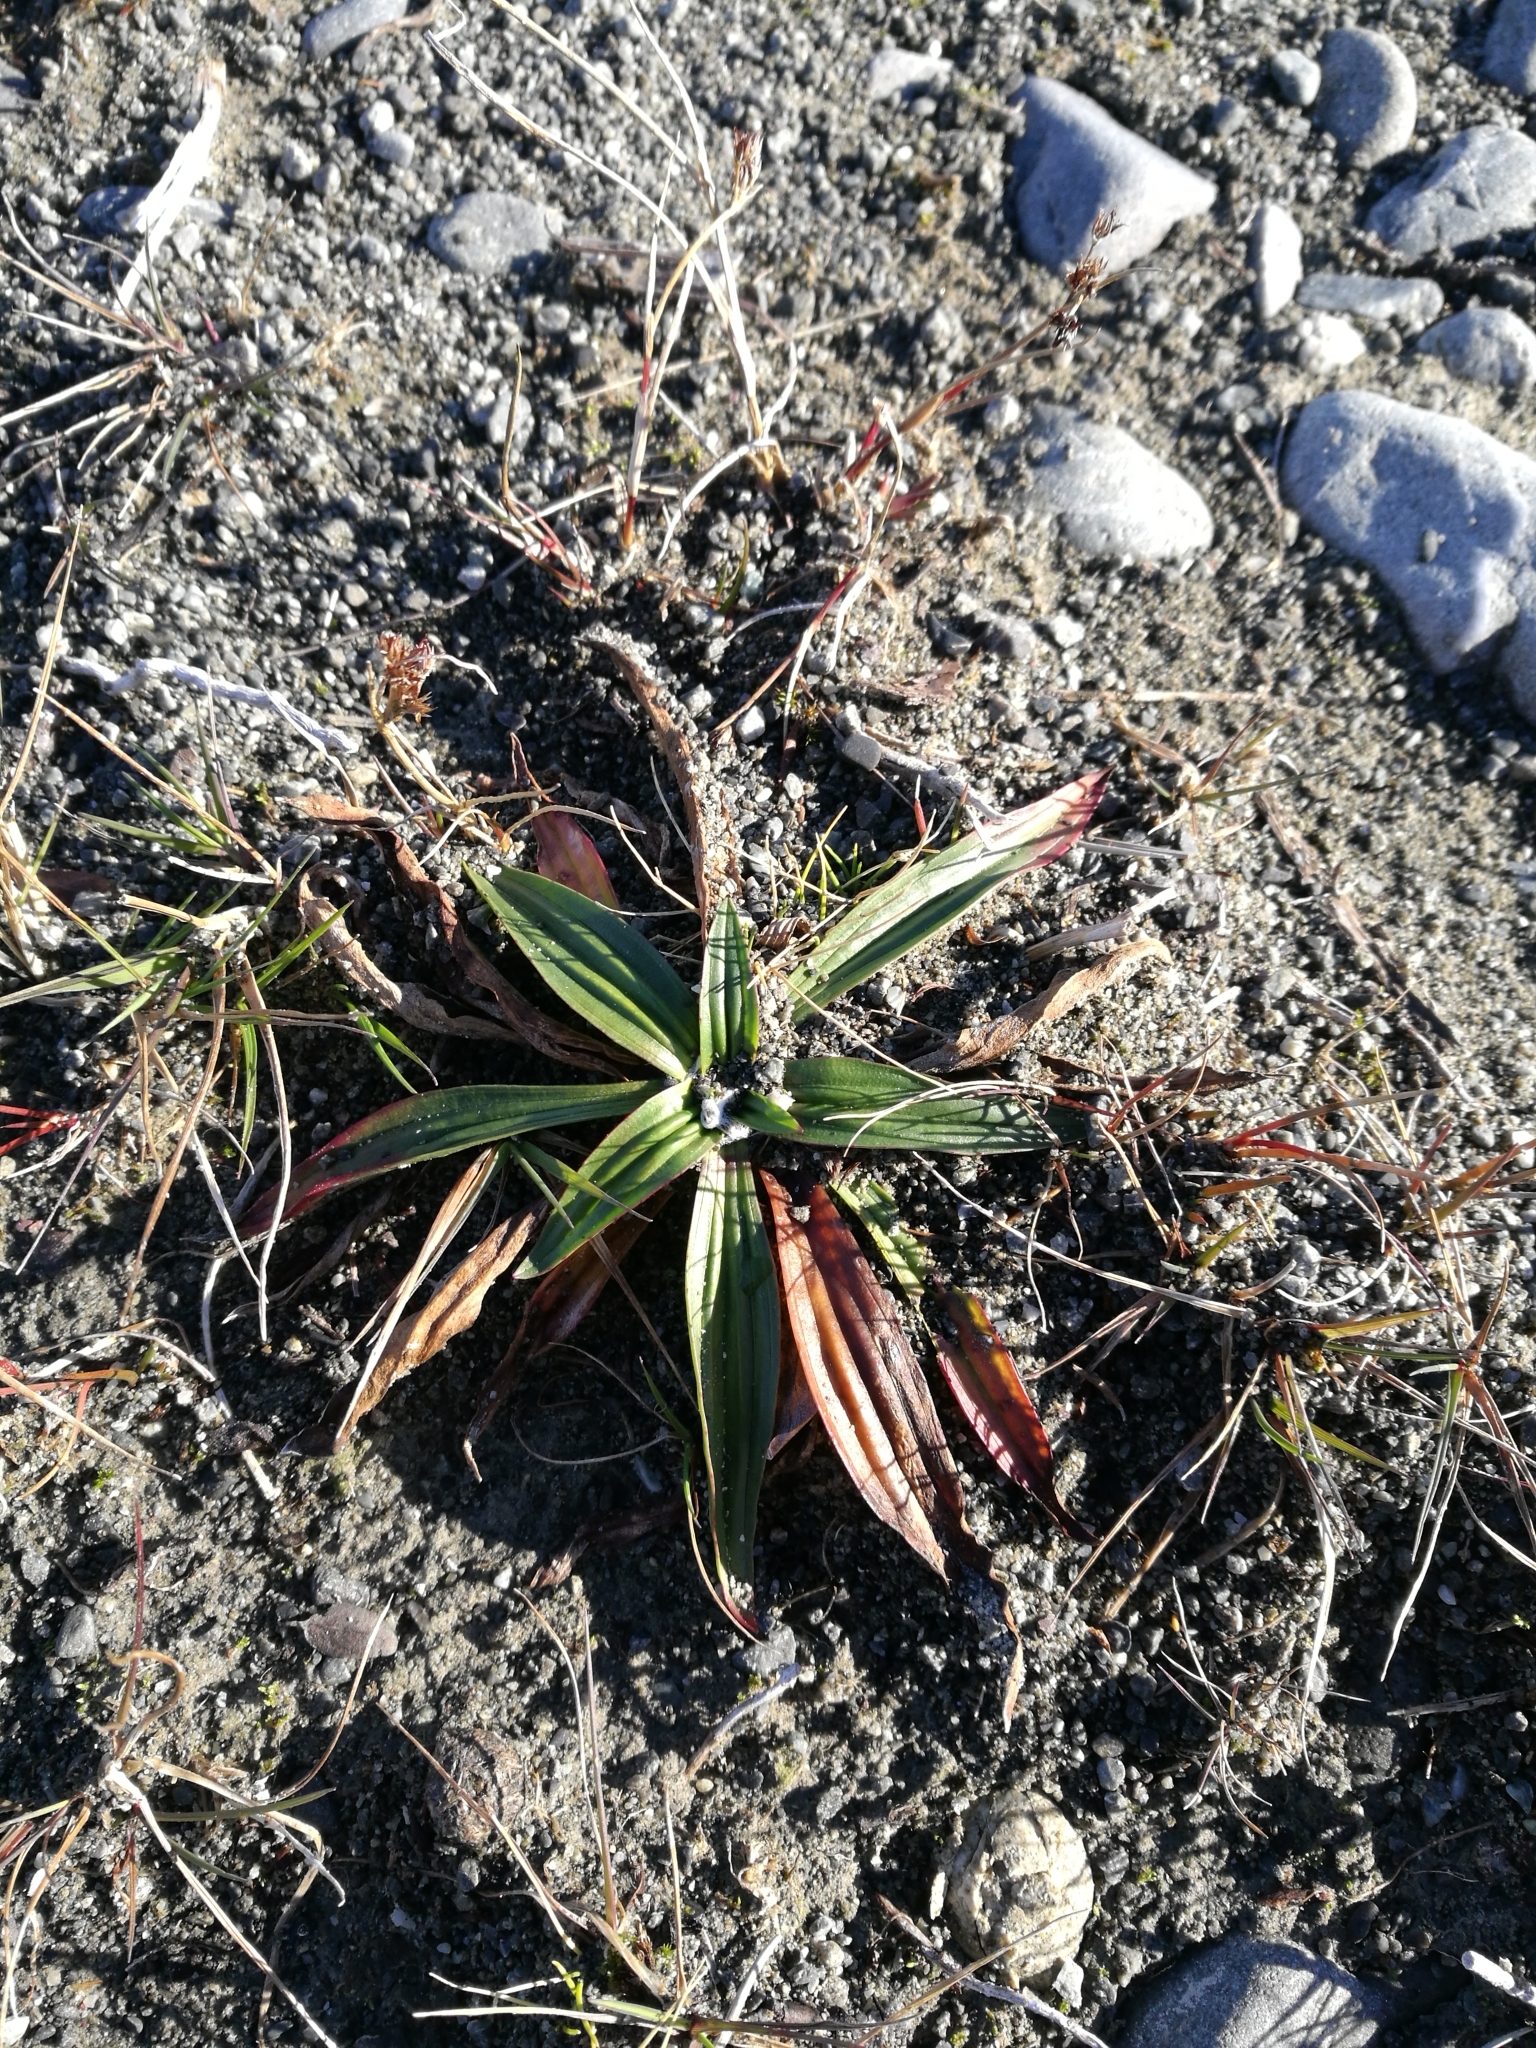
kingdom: Plantae
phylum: Tracheophyta
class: Magnoliopsida
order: Lamiales
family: Plantaginaceae
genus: Plantago
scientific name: Plantago lanceolata
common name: Ribwort plantain
